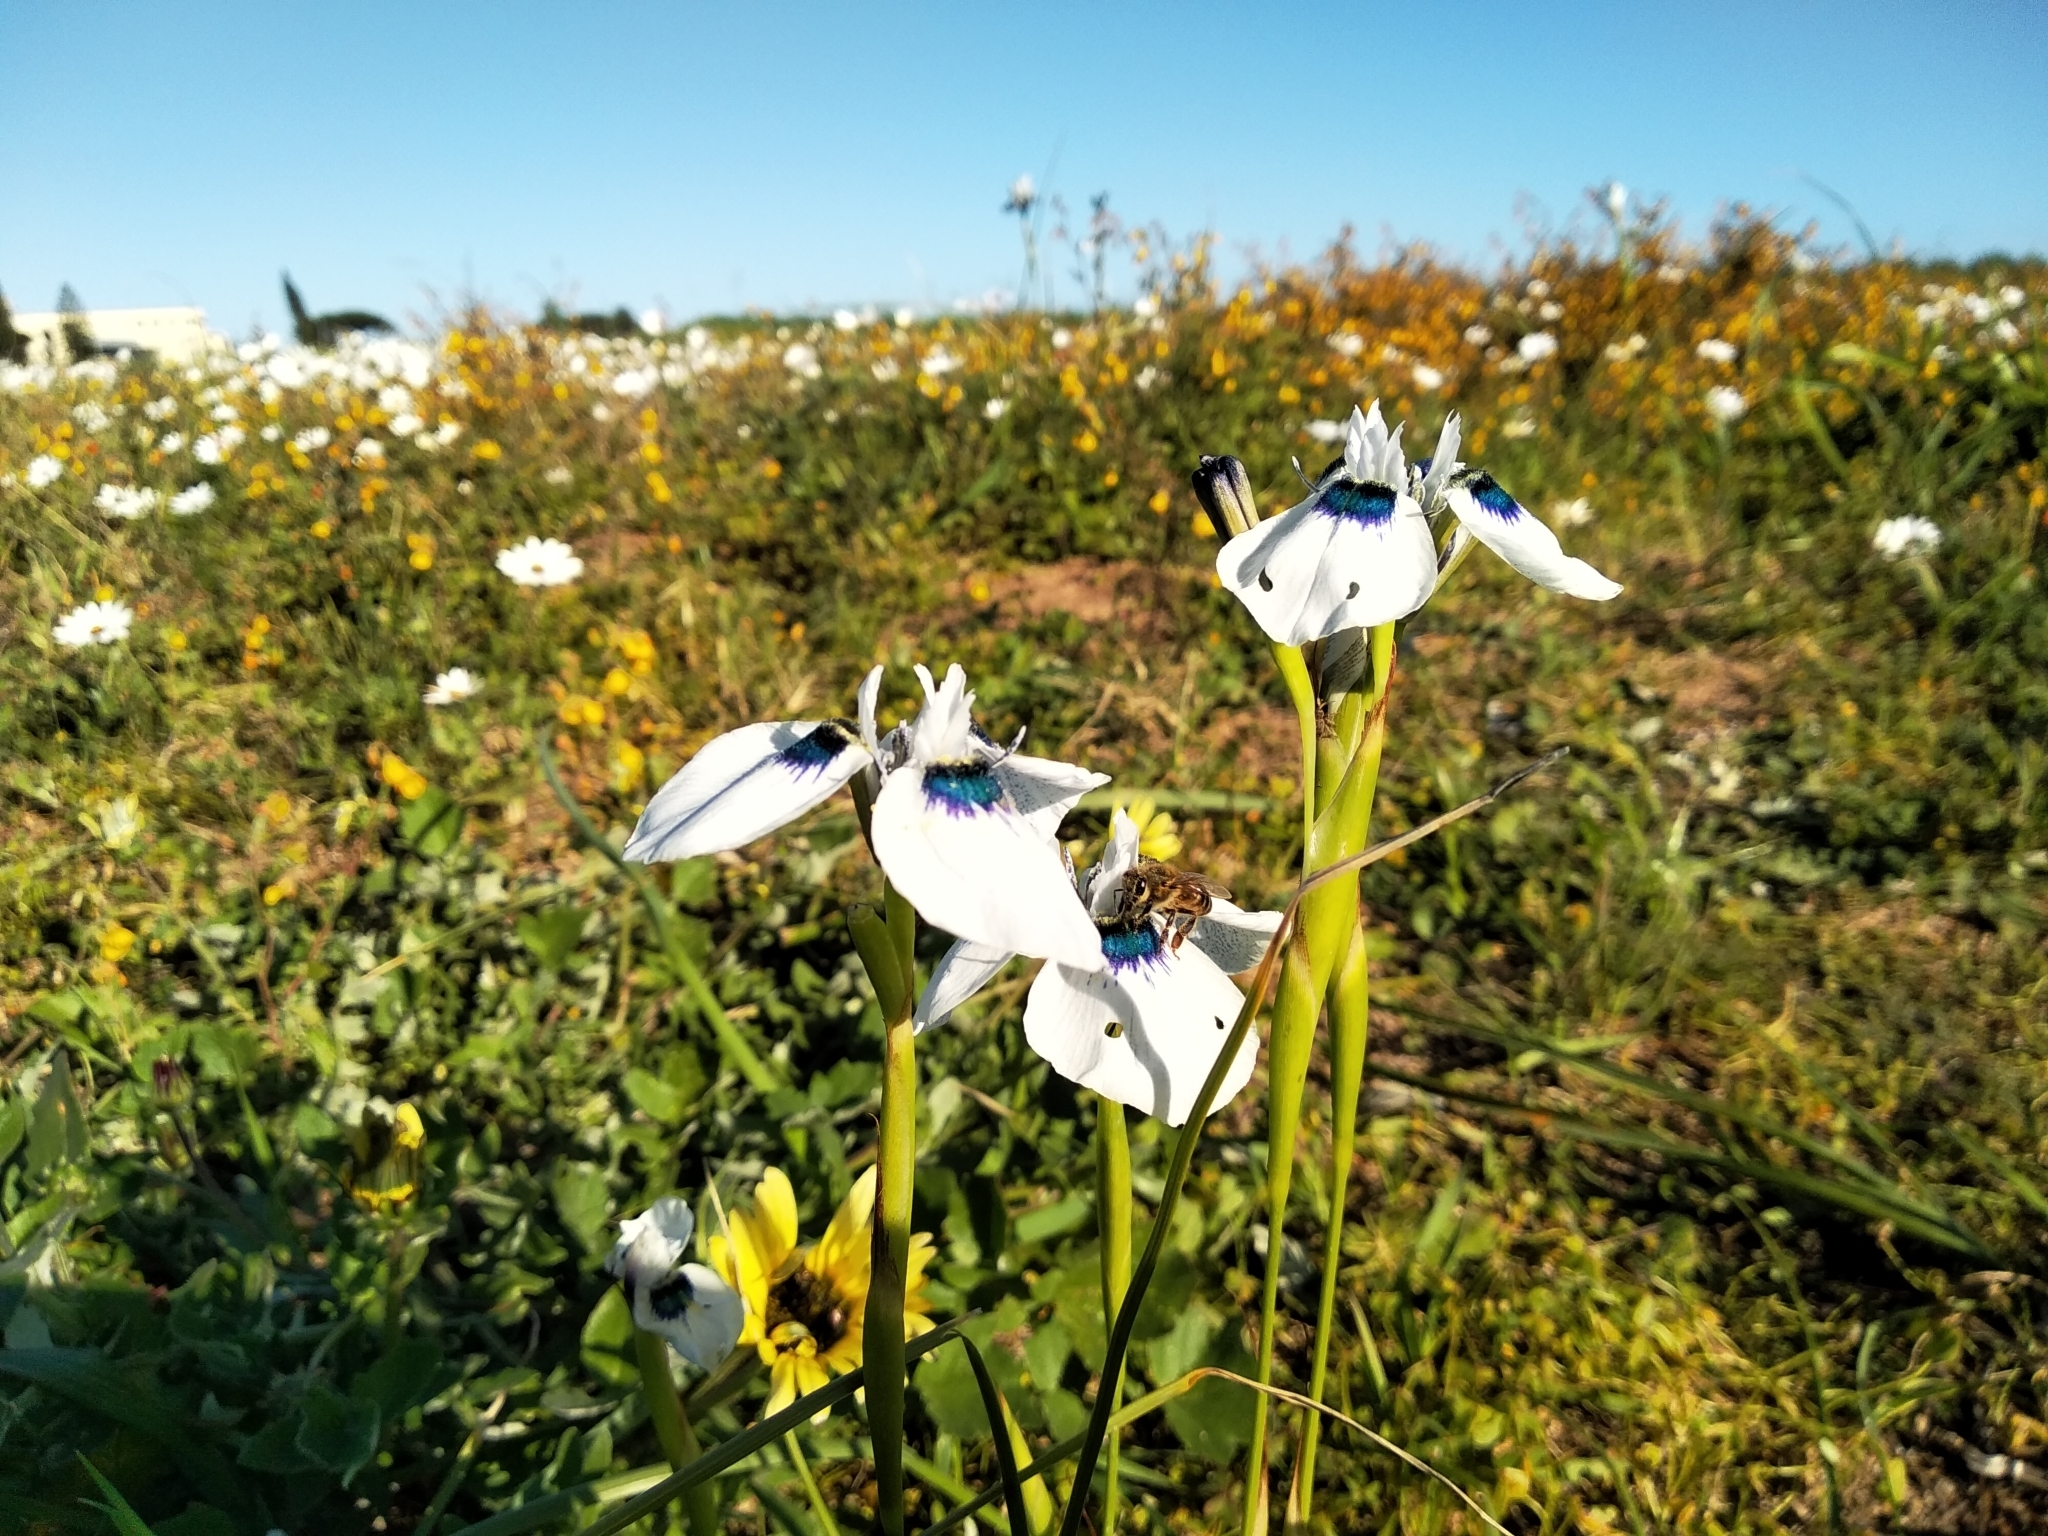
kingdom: Plantae
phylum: Tracheophyta
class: Liliopsida
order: Asparagales
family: Iridaceae
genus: Moraea
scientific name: Moraea aristata
